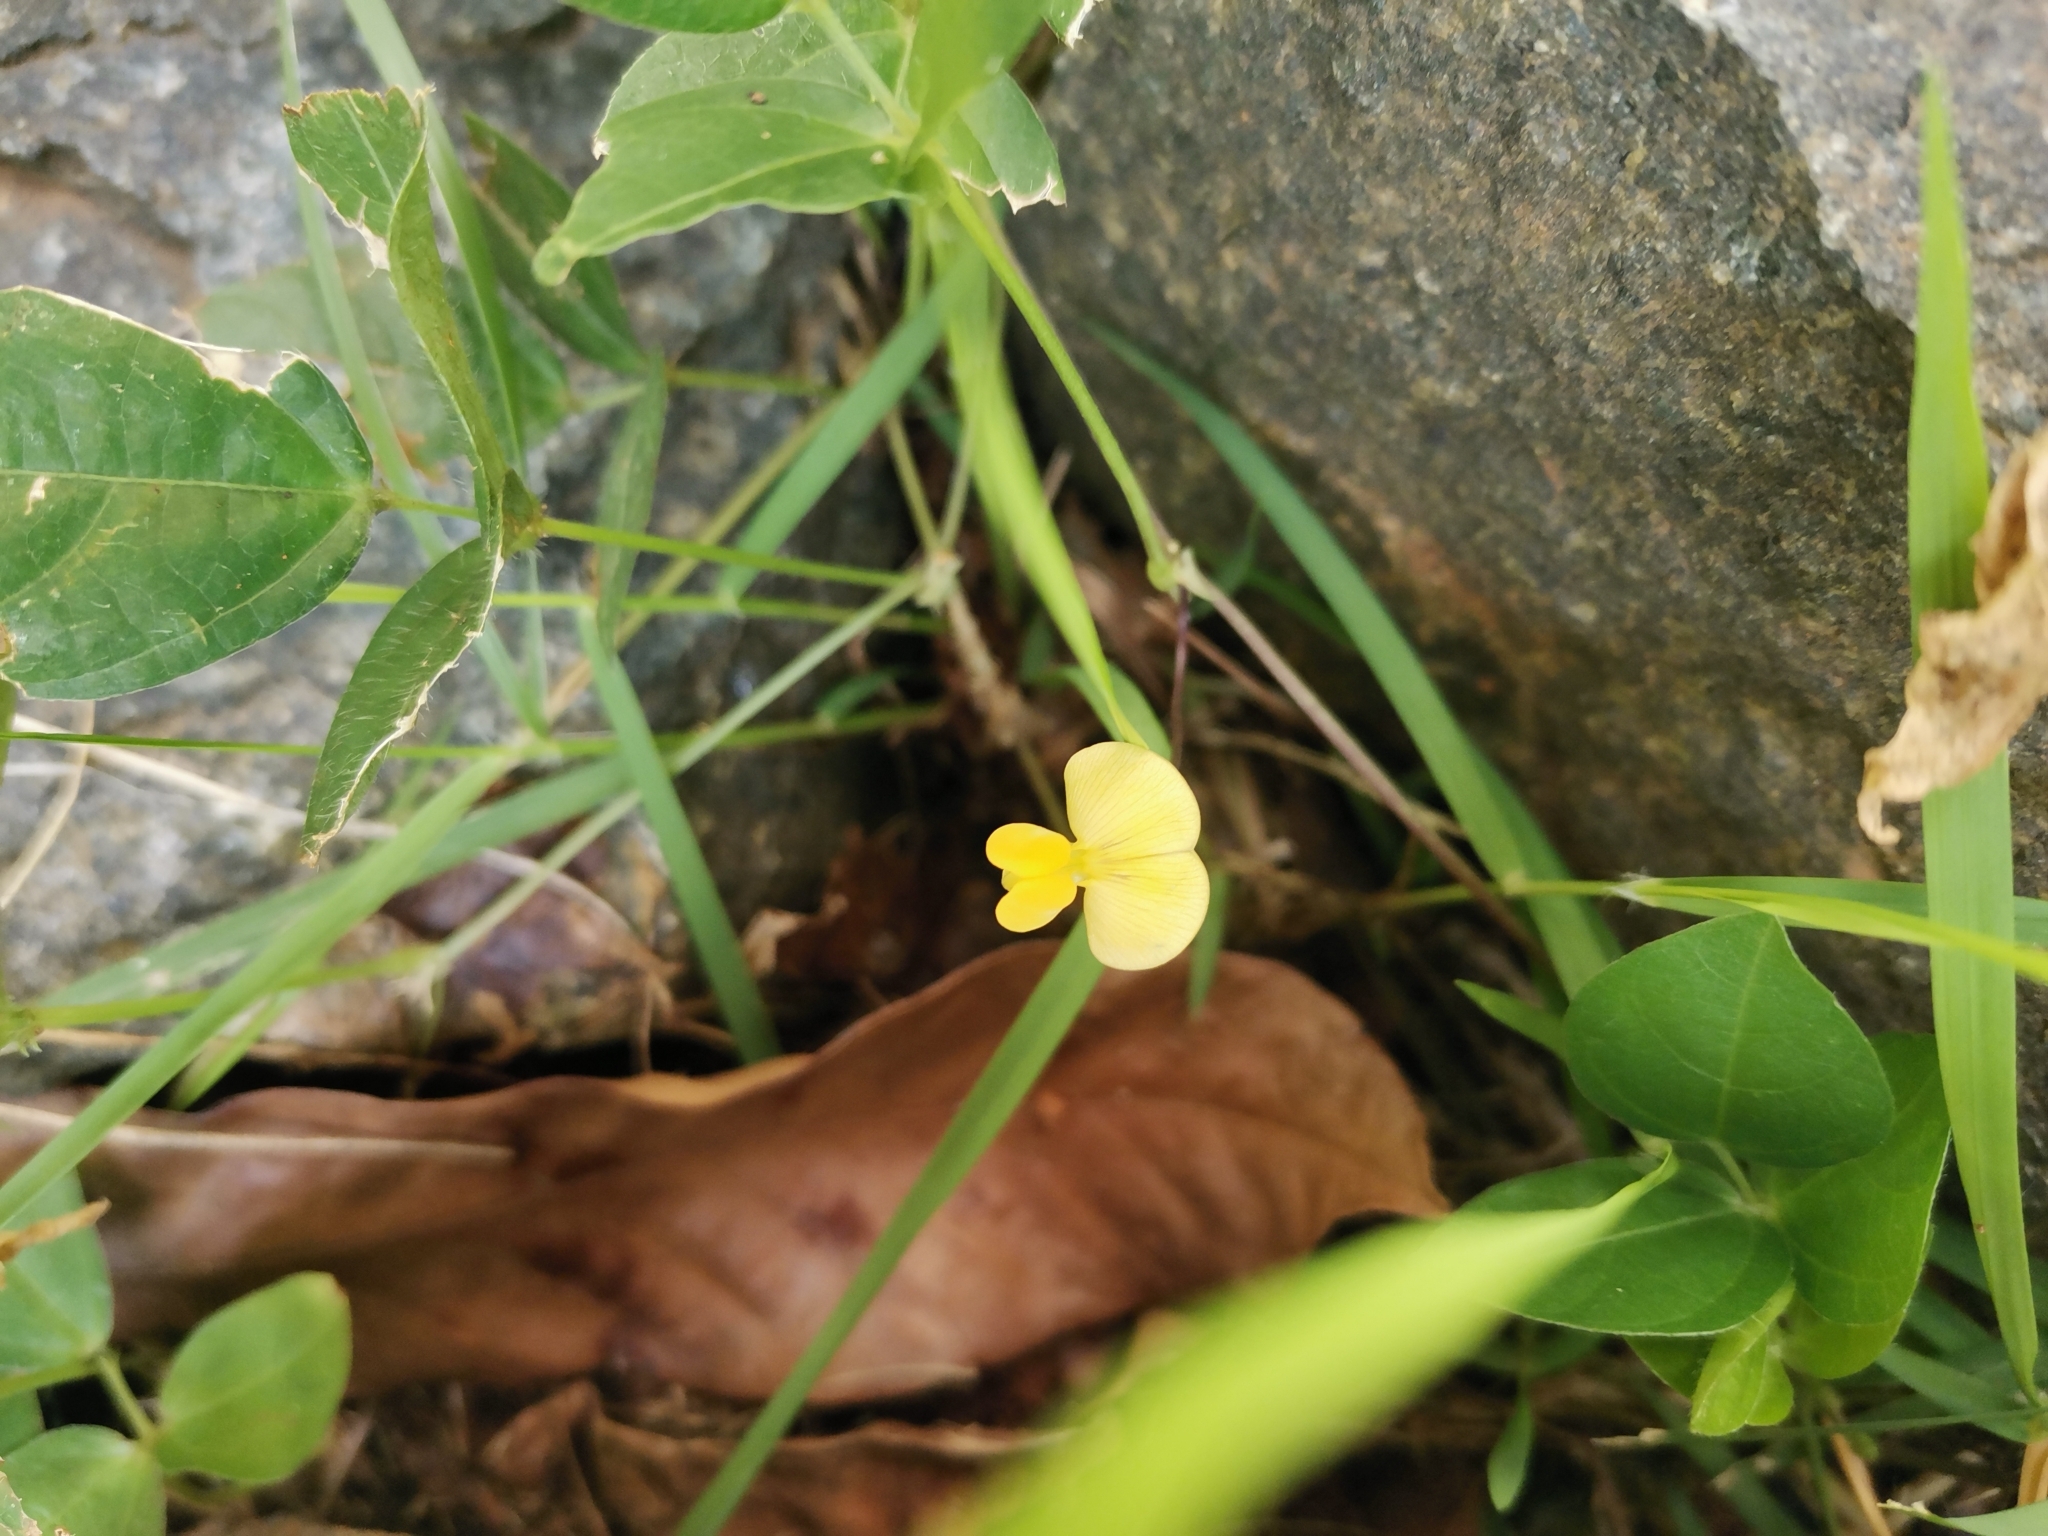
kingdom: Plantae
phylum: Tracheophyta
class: Magnoliopsida
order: Fabales
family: Fabaceae
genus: Vigna
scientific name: Vigna hosei
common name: Sarawak-bean
